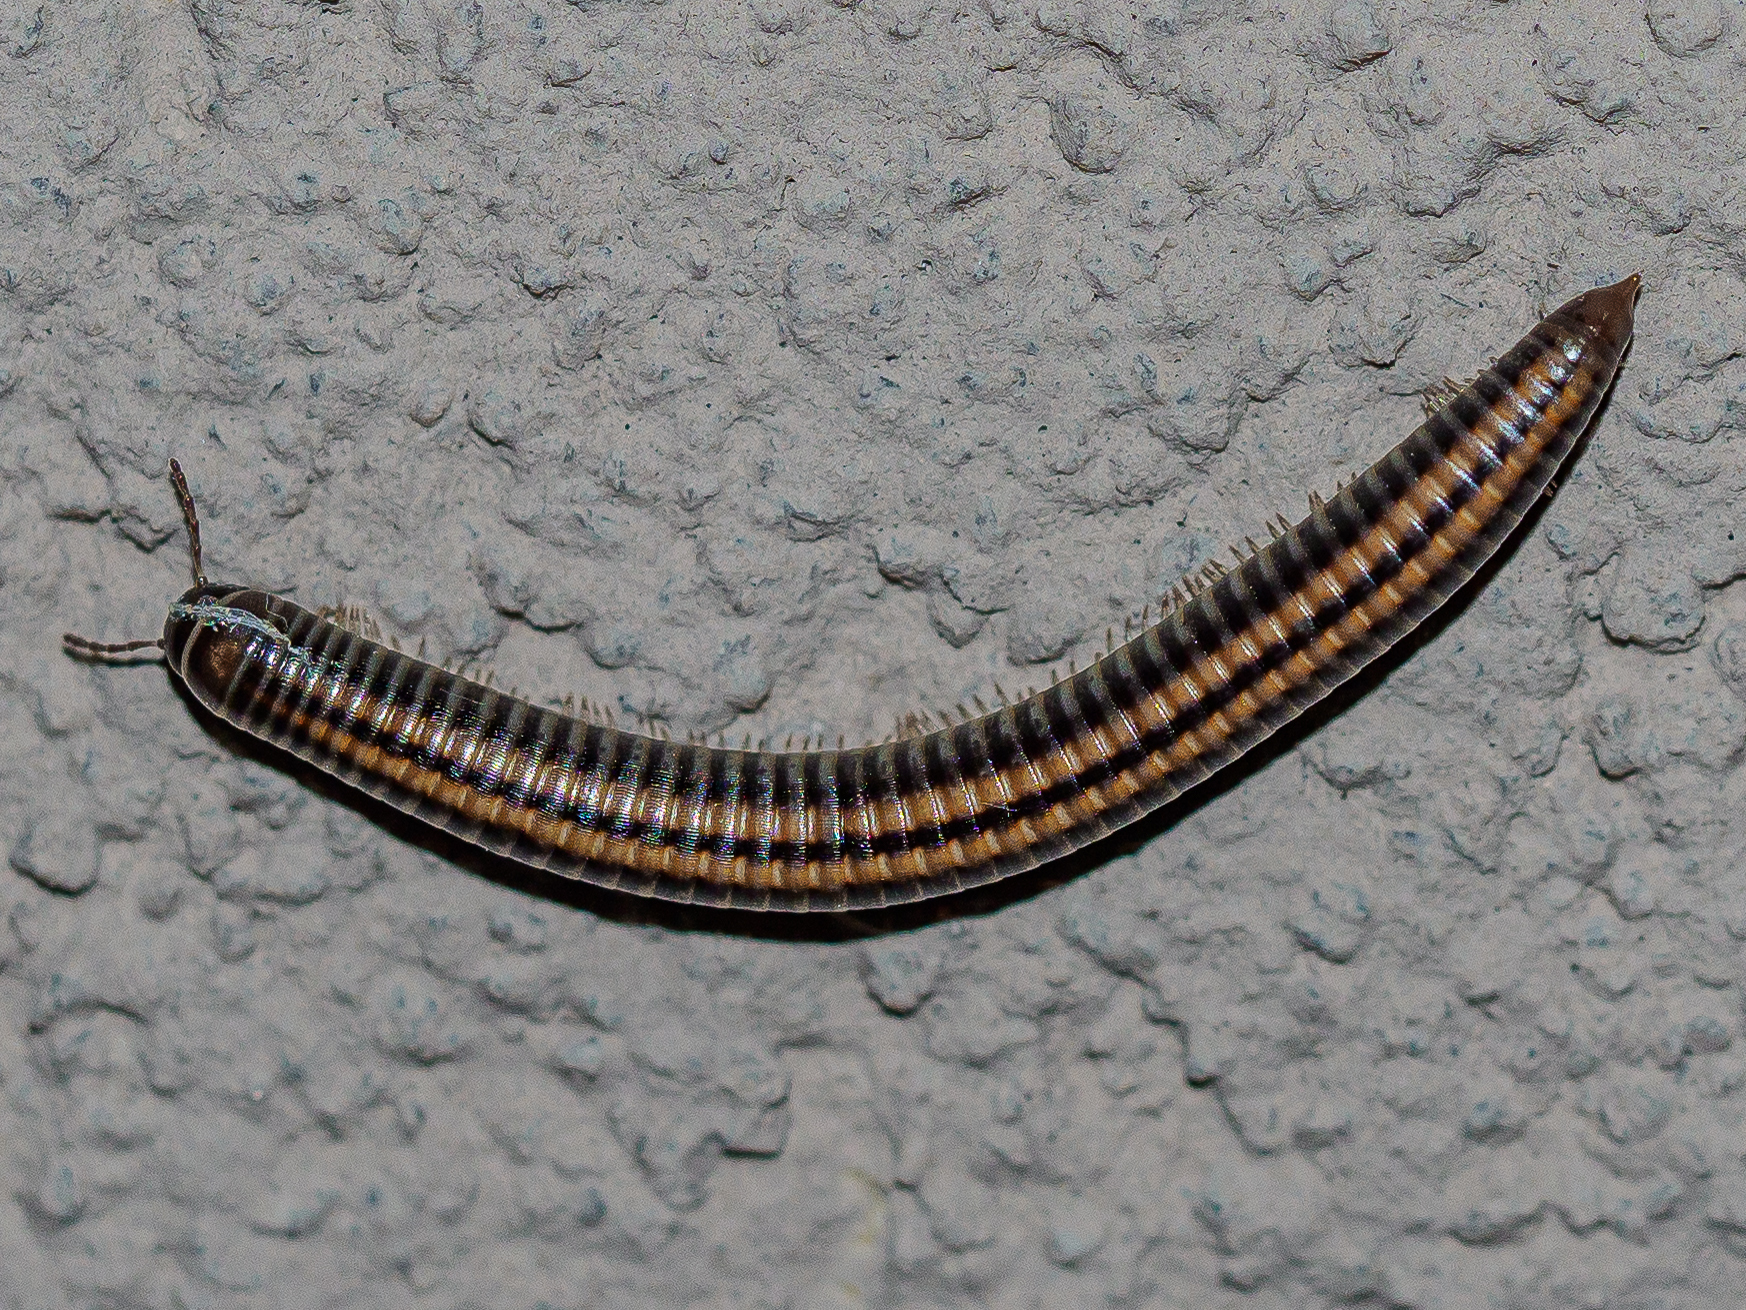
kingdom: Animalia
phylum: Arthropoda
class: Diplopoda
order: Julida
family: Julidae
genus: Ommatoiulus
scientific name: Ommatoiulus sabulosus
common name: Striped millipede
